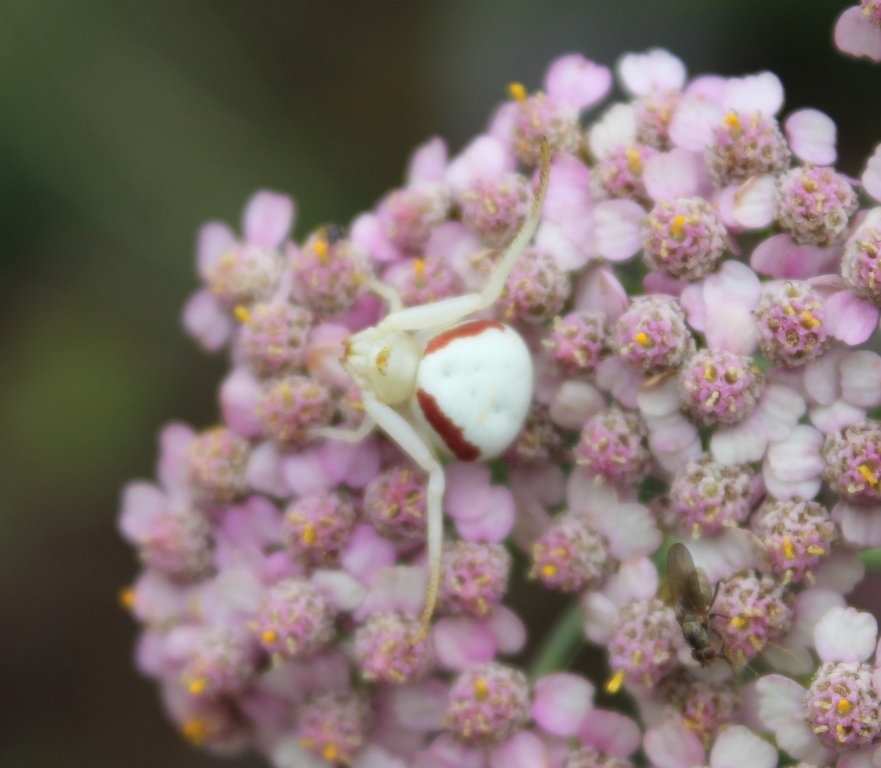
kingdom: Animalia
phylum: Arthropoda
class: Arachnida
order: Araneae
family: Thomisidae
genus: Misumena
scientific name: Misumena vatia
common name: Goldenrod crab spider
